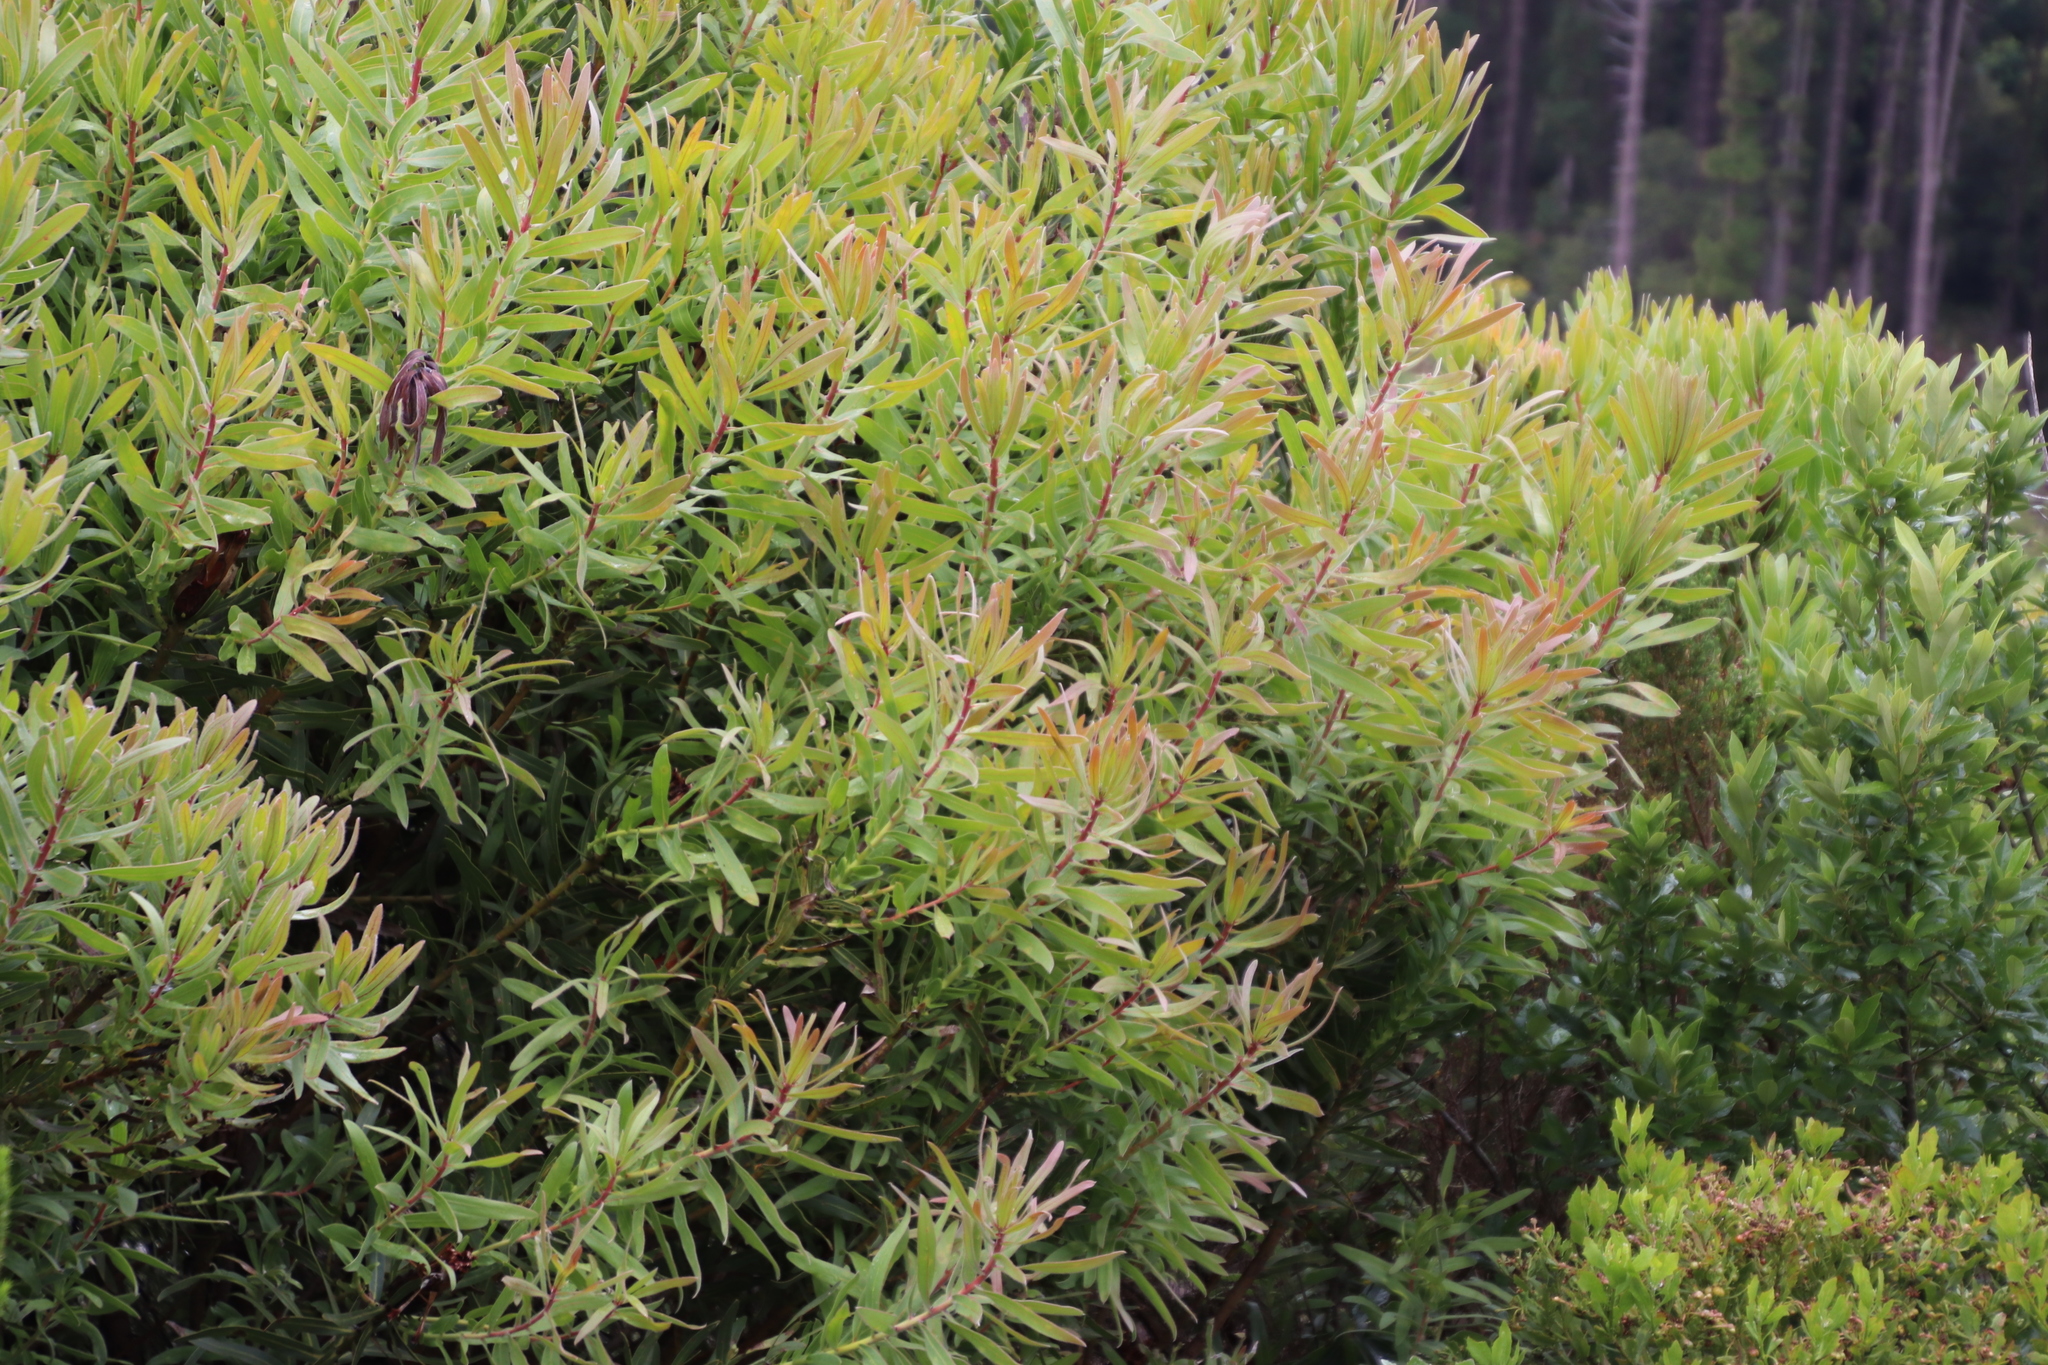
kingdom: Plantae
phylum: Tracheophyta
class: Magnoliopsida
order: Proteales
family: Proteaceae
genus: Protea
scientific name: Protea lepidocarpodendron
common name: Black-bearded protea
